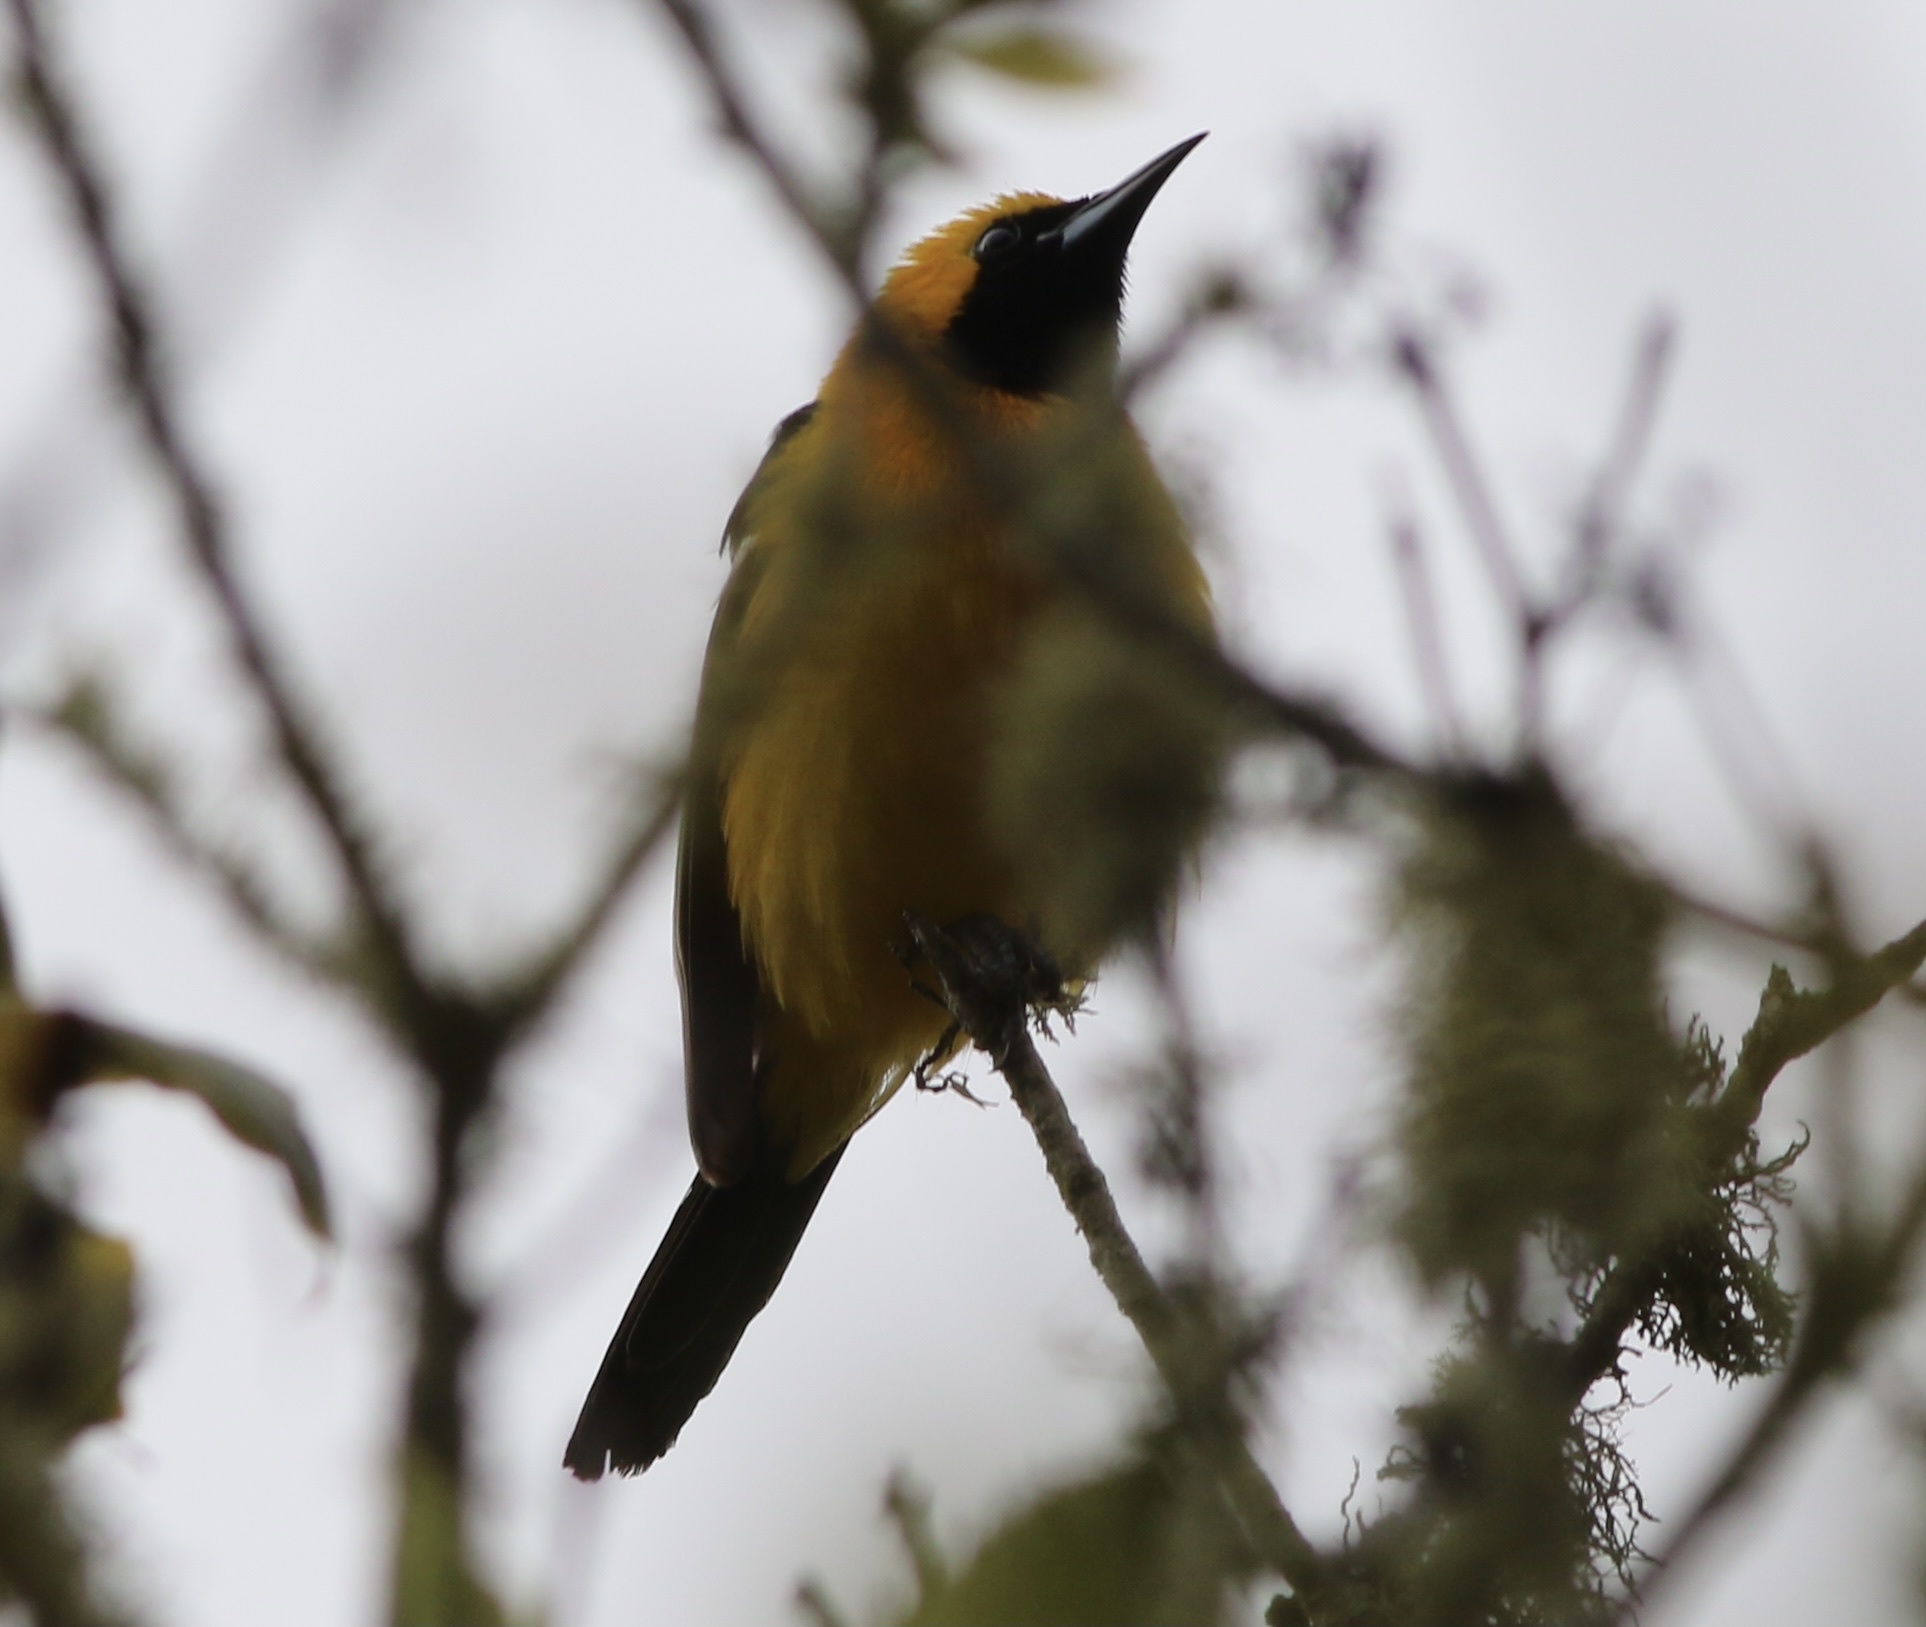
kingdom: Animalia
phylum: Chordata
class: Aves
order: Passeriformes
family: Icteridae
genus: Icterus
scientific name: Icterus cucullatus
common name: Hooded oriole
